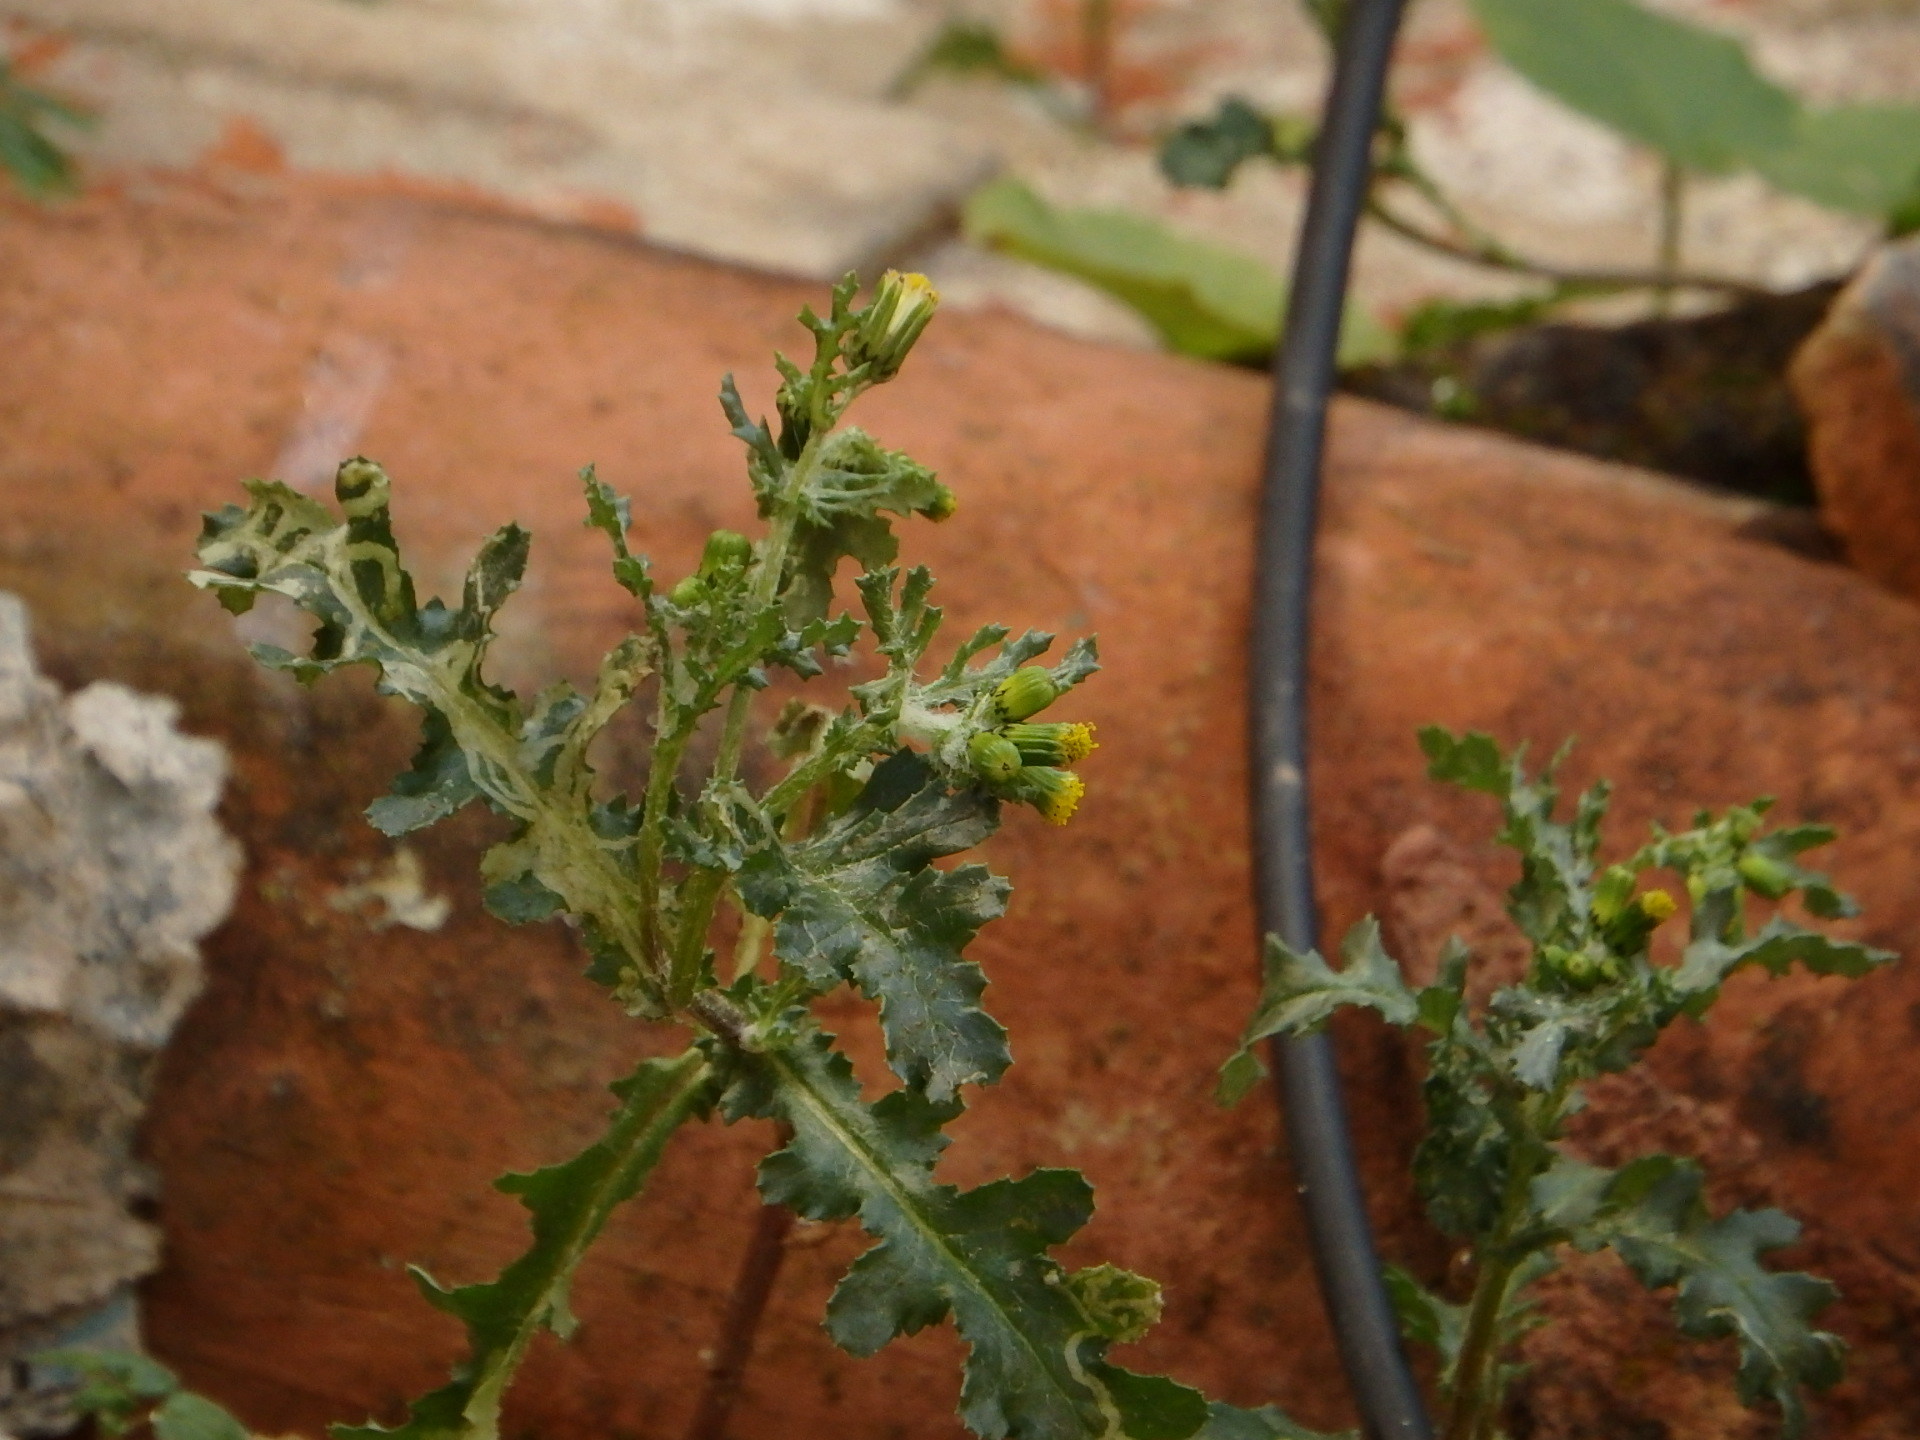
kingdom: Plantae
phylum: Tracheophyta
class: Magnoliopsida
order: Asterales
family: Asteraceae
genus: Senecio
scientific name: Senecio vulgaris
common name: Old-man-in-the-spring
